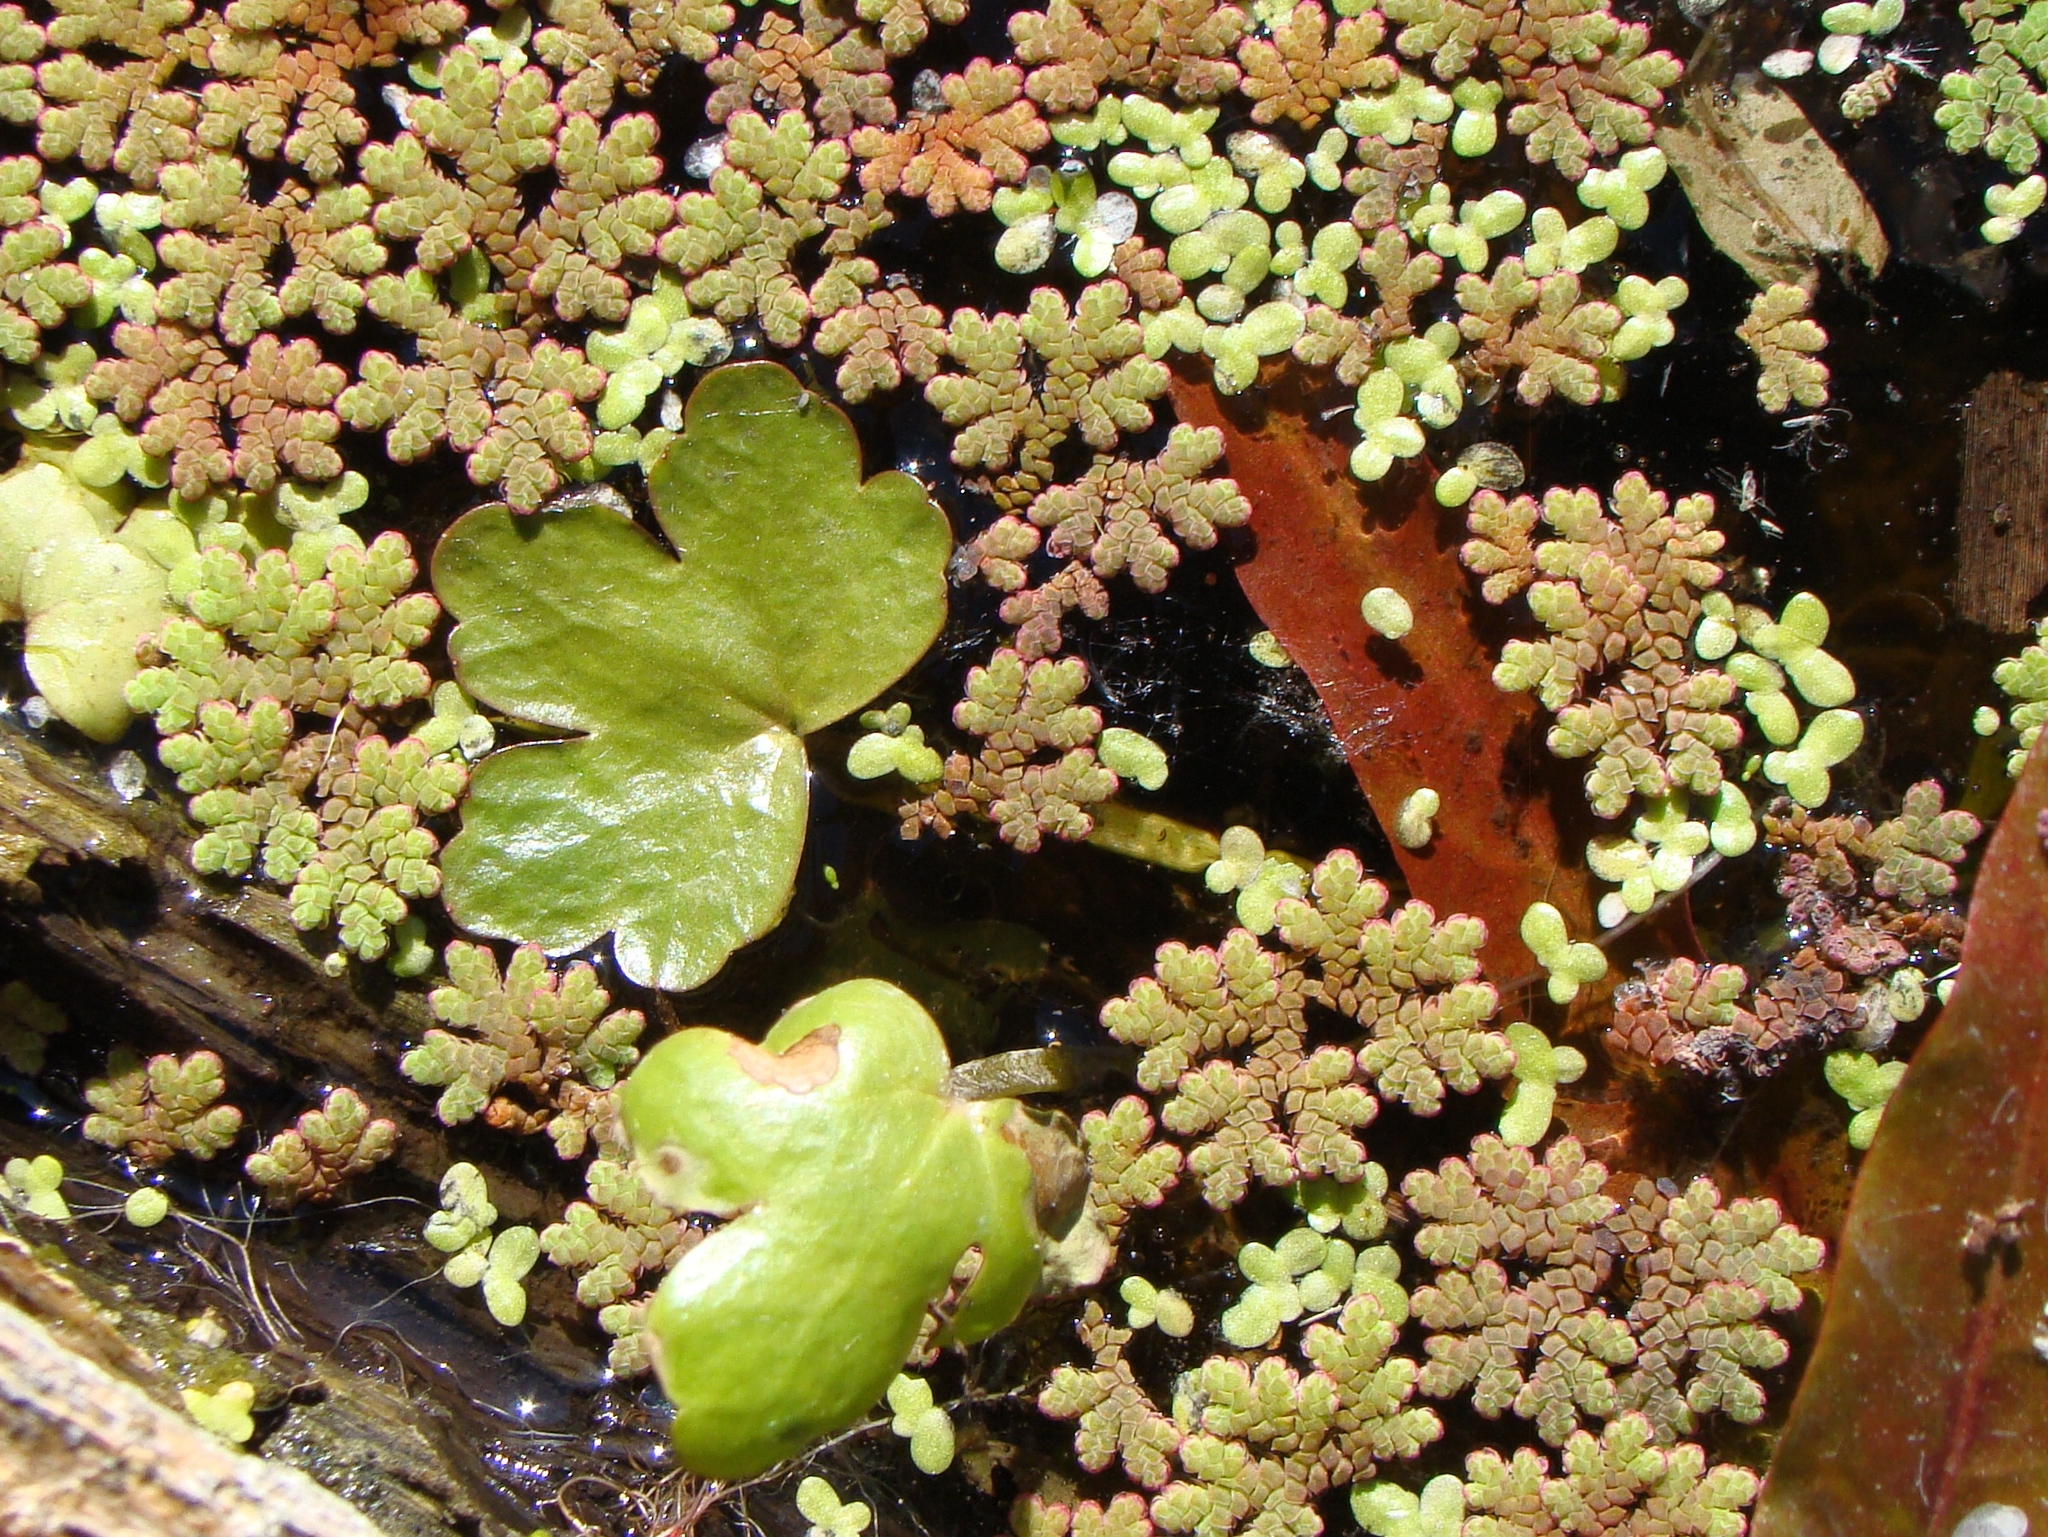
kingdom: Plantae
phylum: Tracheophyta
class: Magnoliopsida
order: Ranunculales
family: Ranunculaceae
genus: Ranunculus
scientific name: Ranunculus sceleratus
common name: Celery-leaved buttercup
